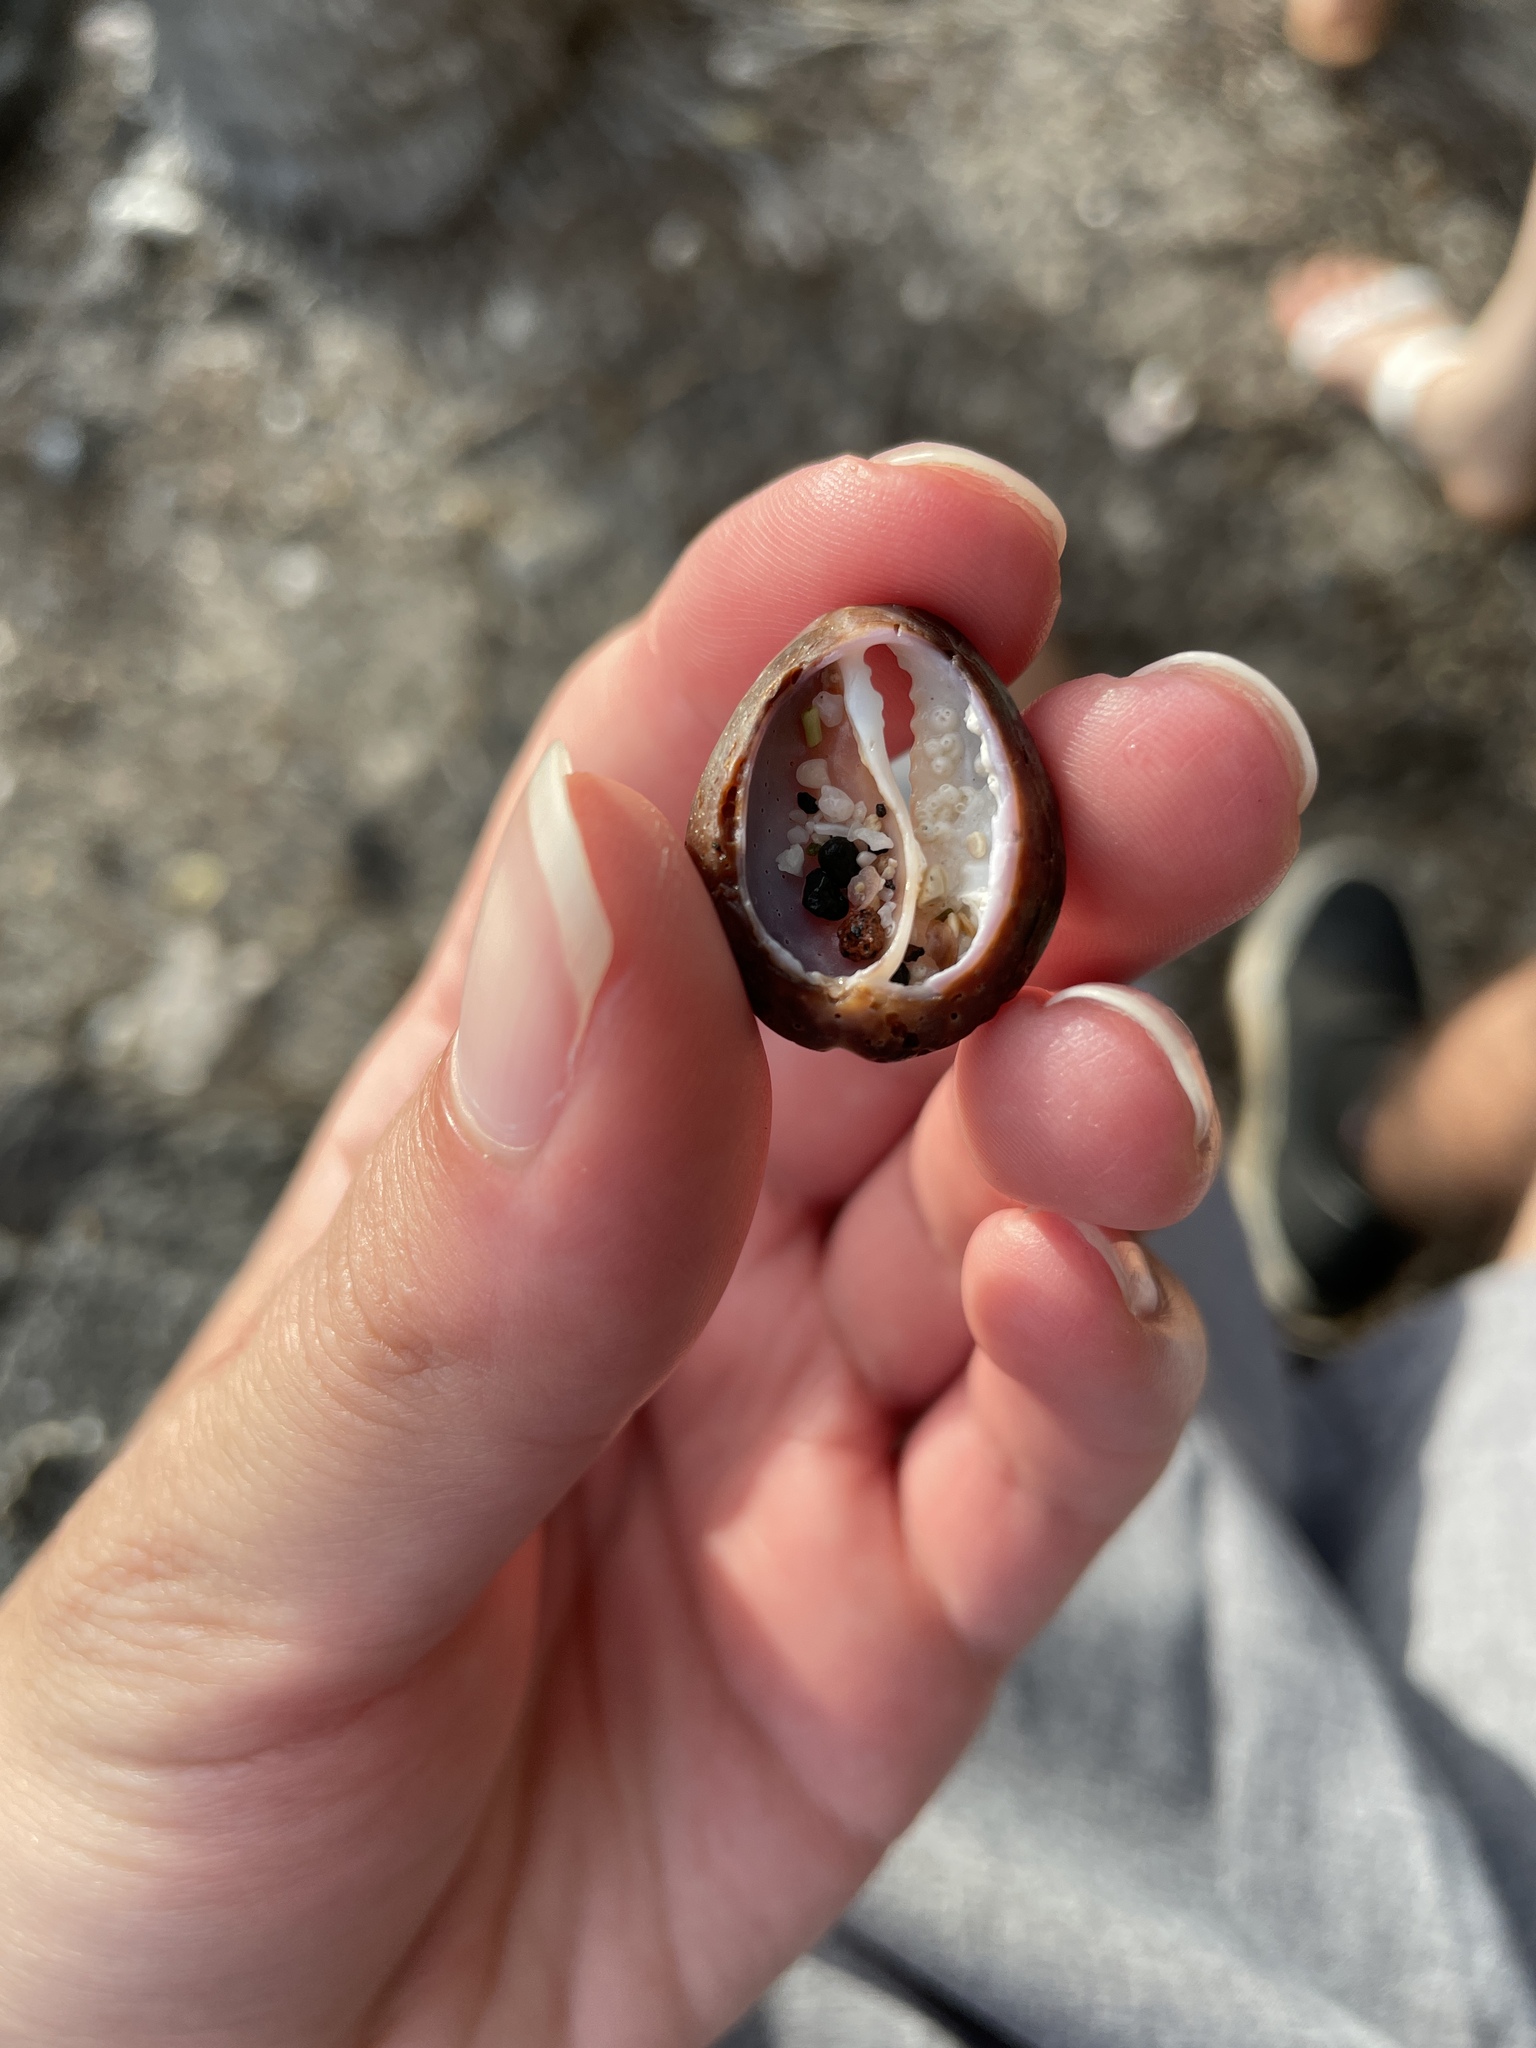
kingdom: Animalia
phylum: Mollusca
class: Gastropoda
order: Littorinimorpha
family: Cypraeidae
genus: Monetaria
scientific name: Monetaria caputophidii
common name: Snake's head cowry
